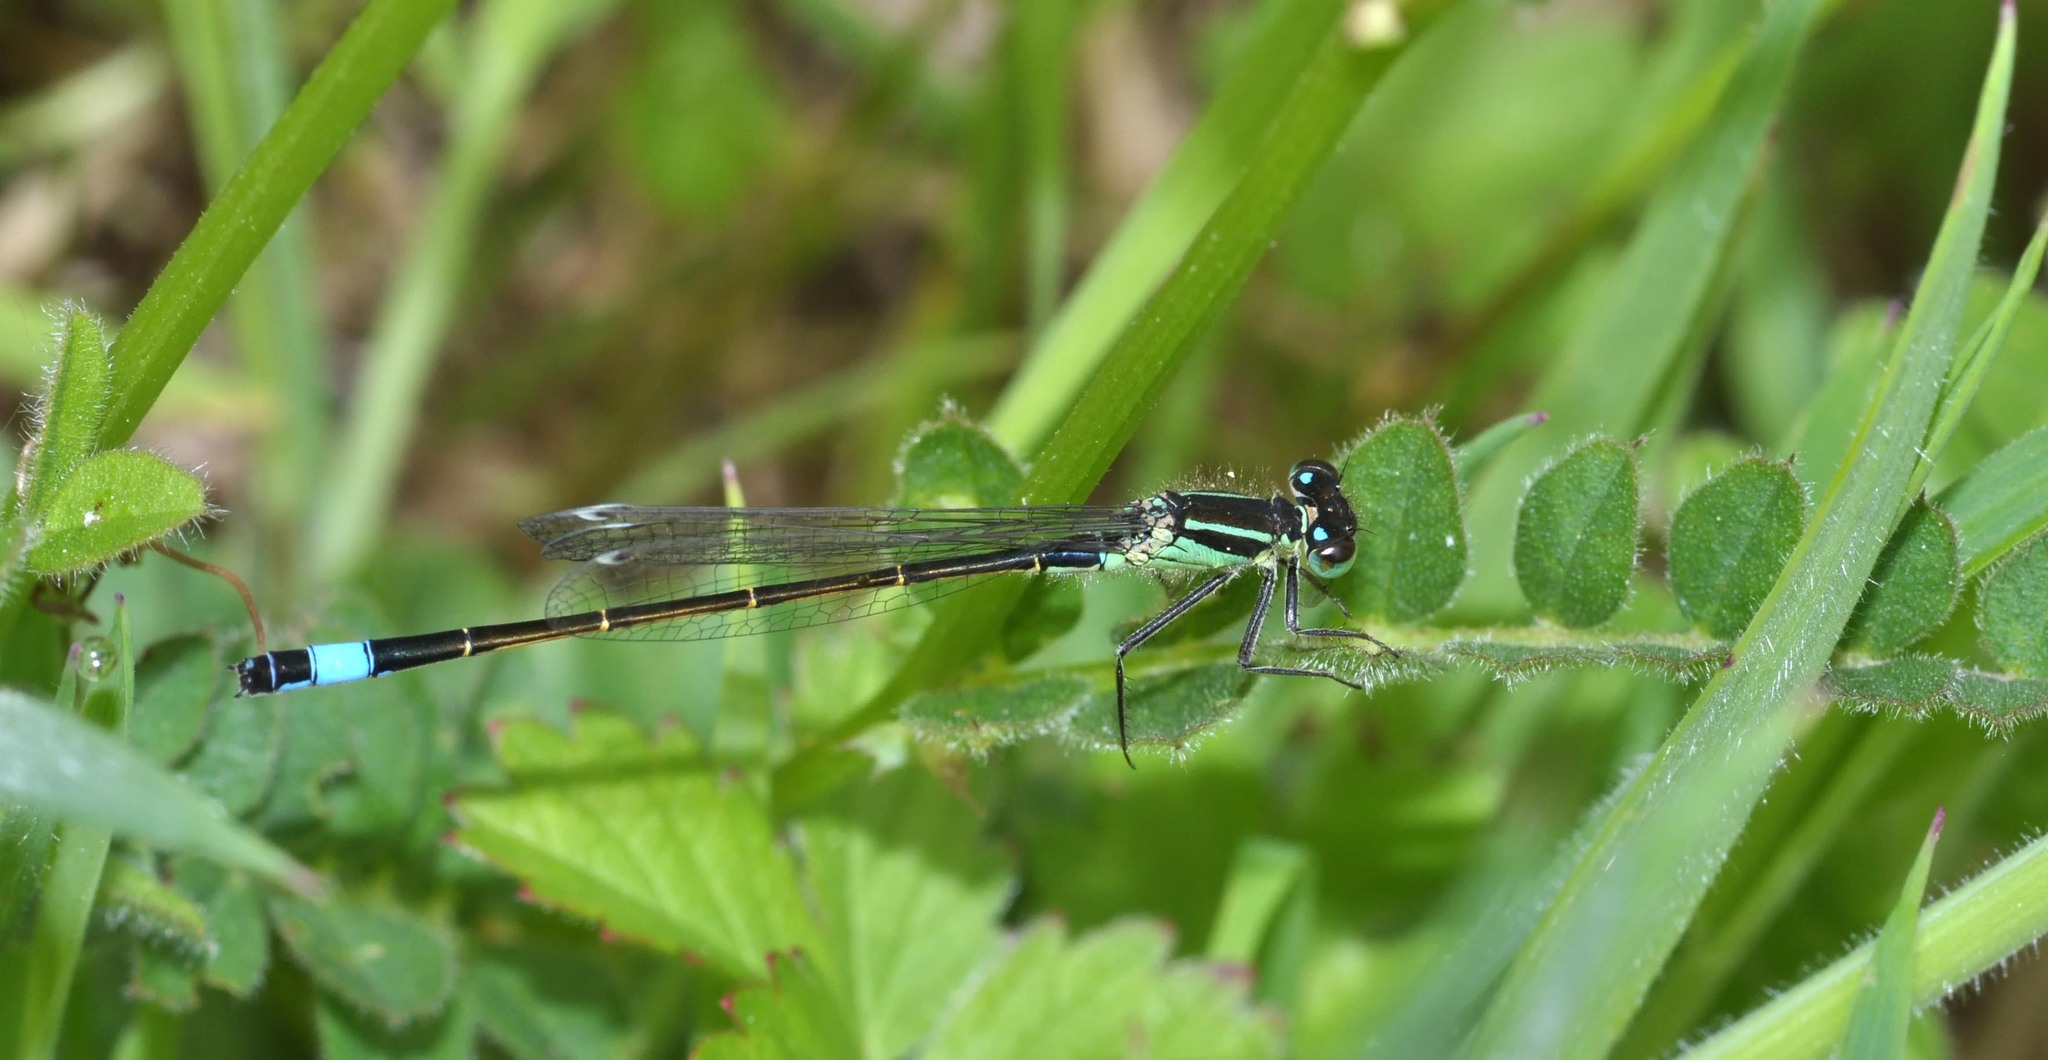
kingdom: Animalia
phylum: Arthropoda
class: Insecta
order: Odonata
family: Coenagrionidae
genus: Ischnura
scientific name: Ischnura elegans
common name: Blue-tailed damselfly
